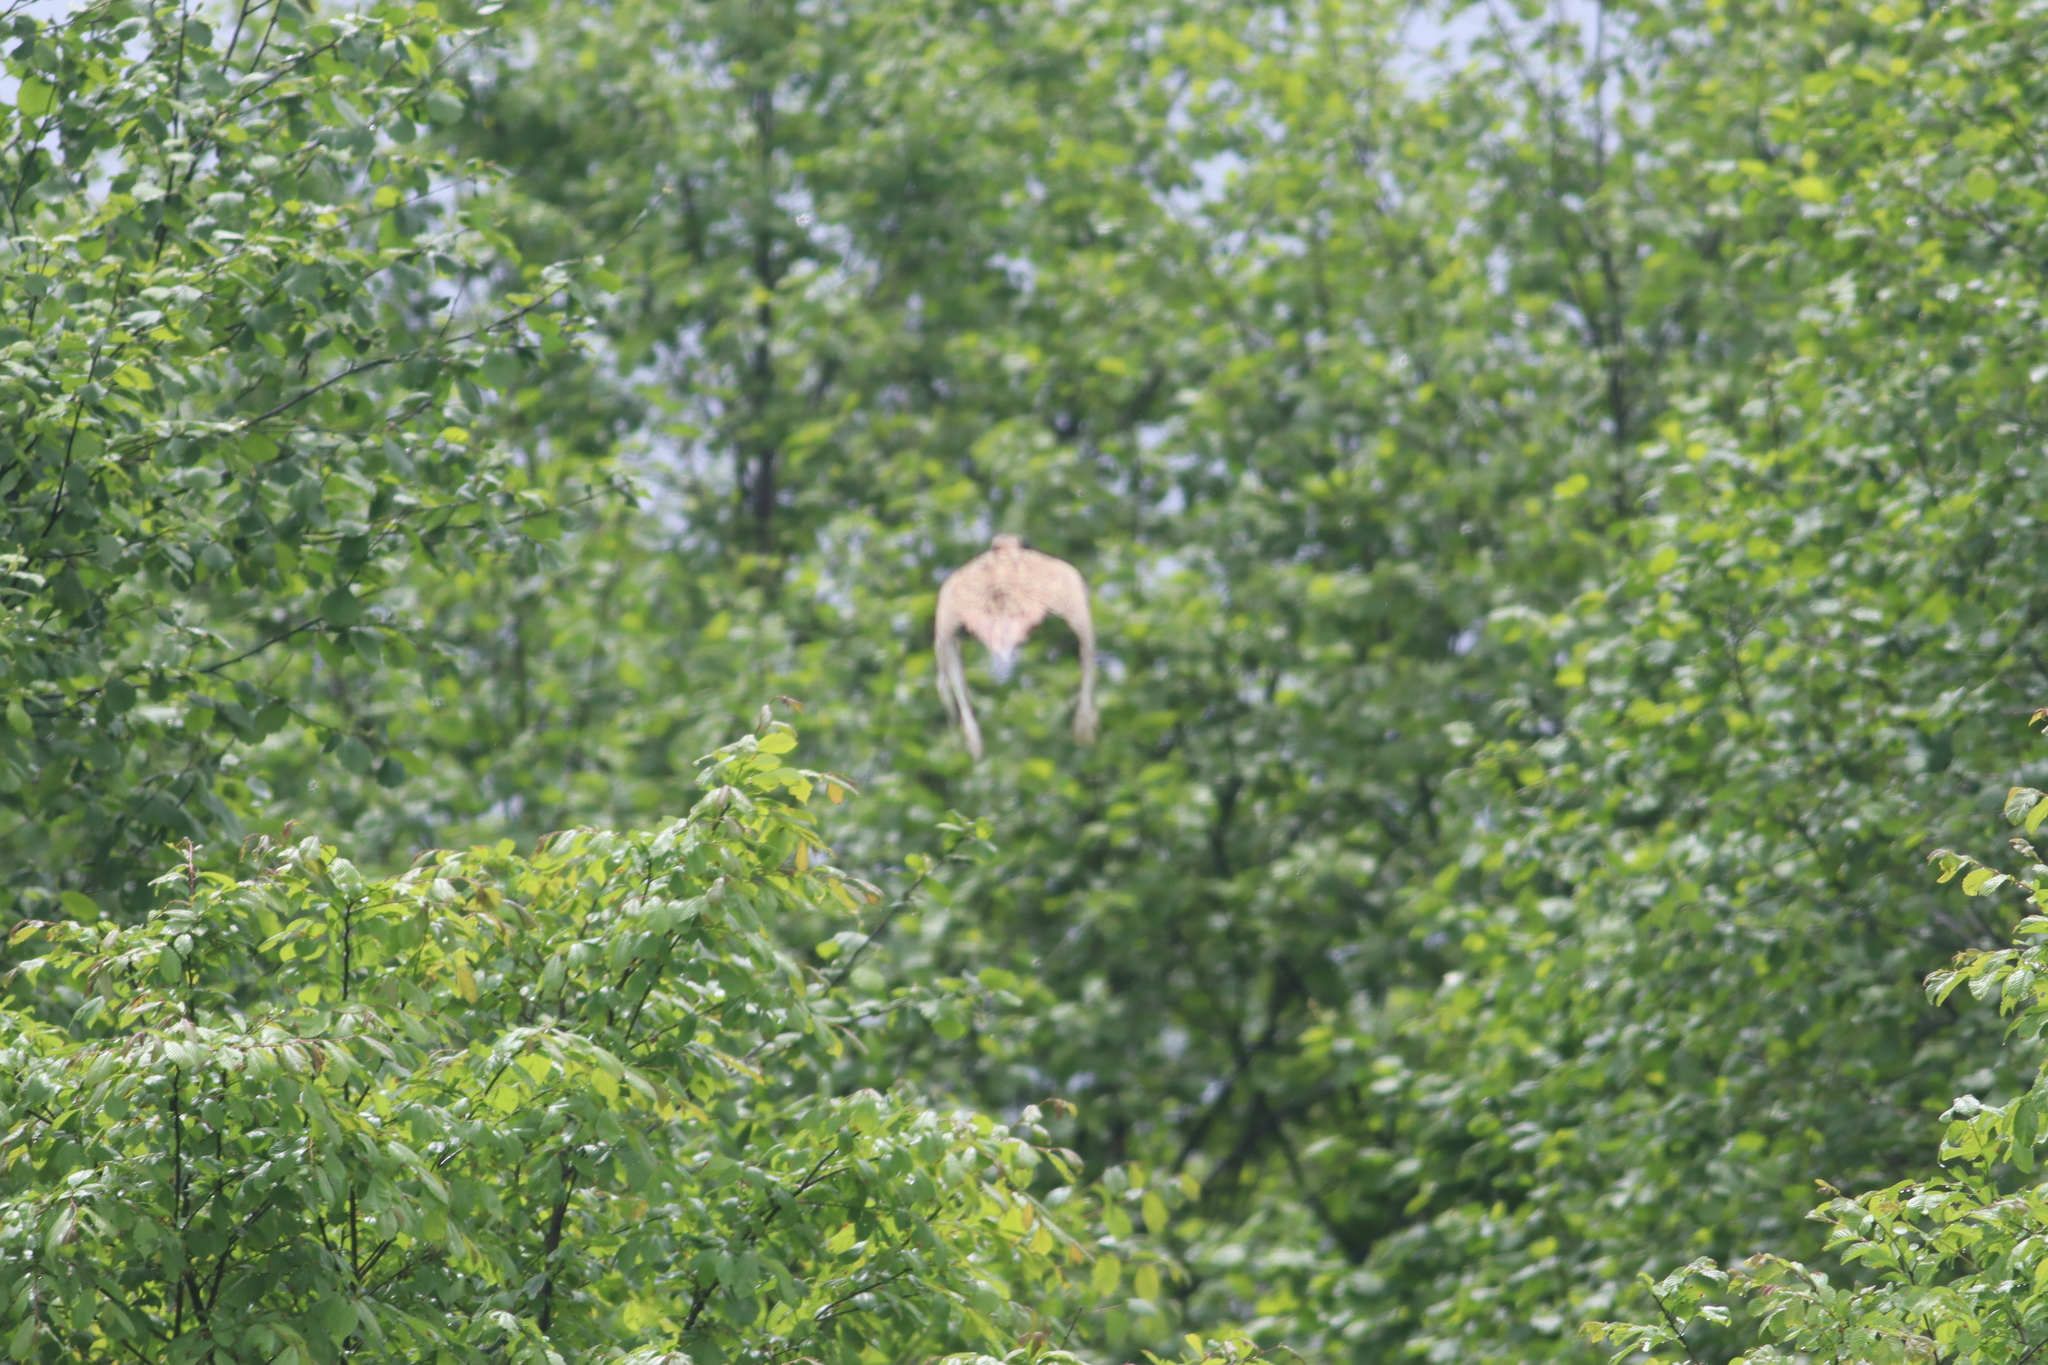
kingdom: Animalia
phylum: Chordata
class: Aves
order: Galliformes
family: Phasianidae
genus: Phasianus
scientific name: Phasianus colchicus
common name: Common pheasant
